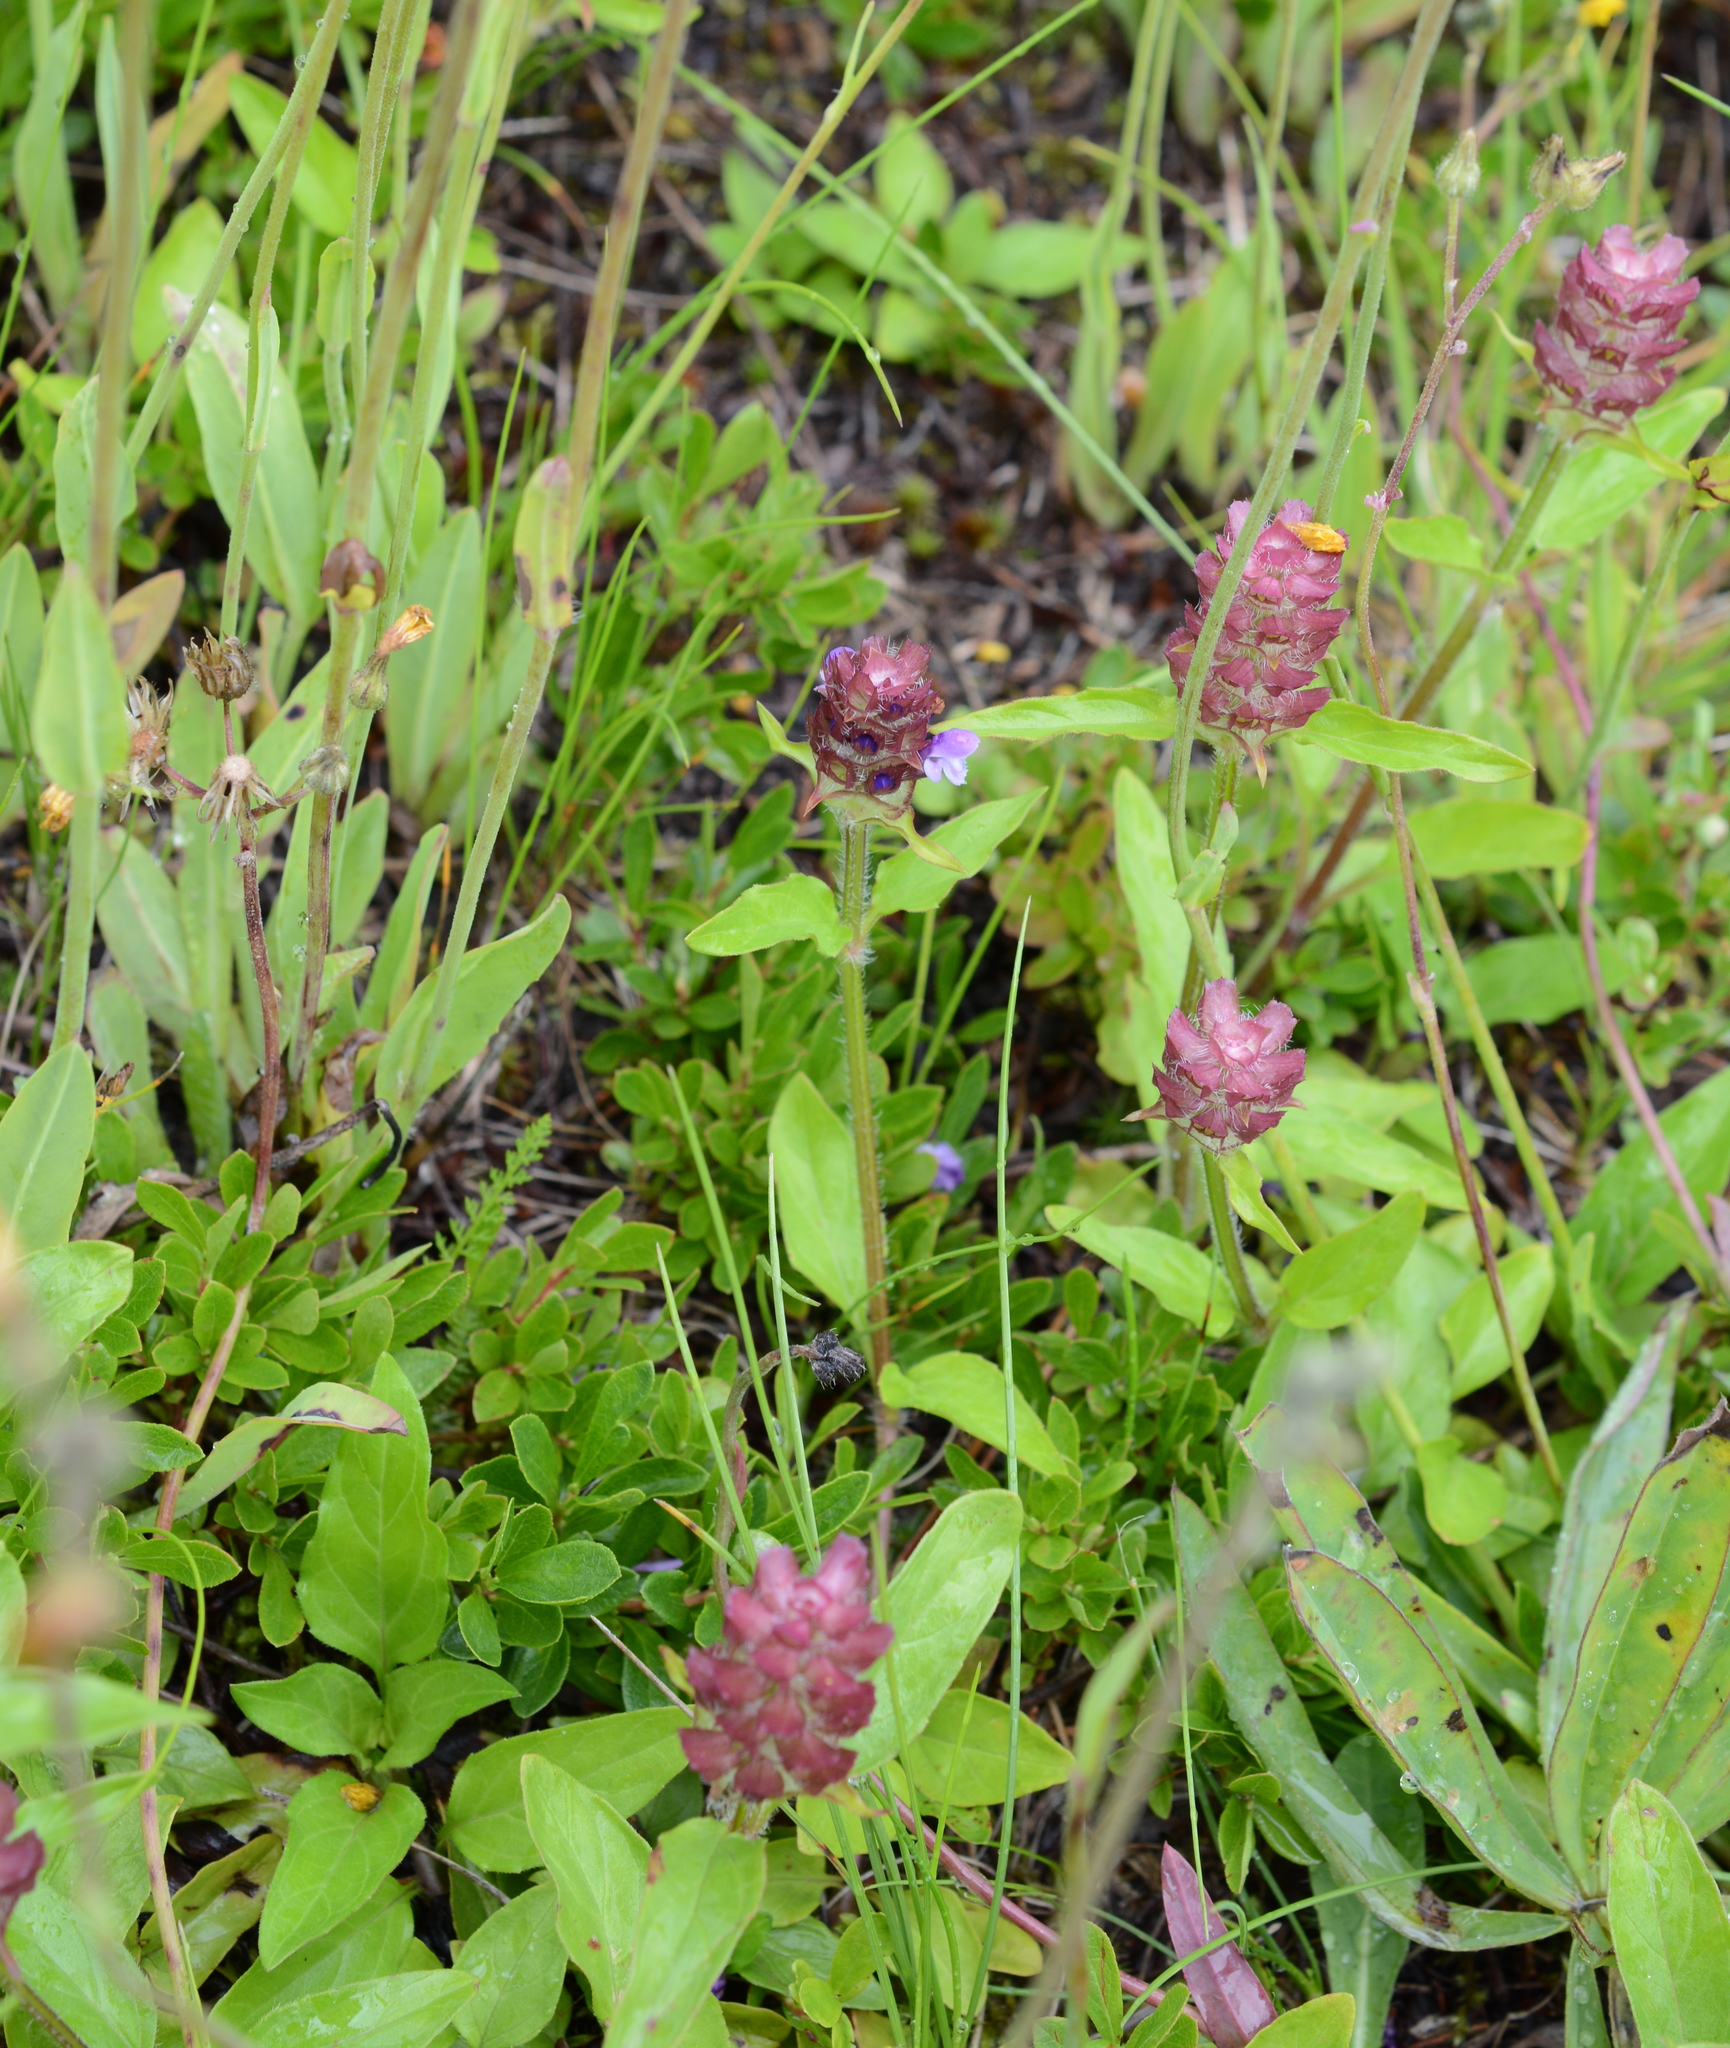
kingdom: Plantae
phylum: Tracheophyta
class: Magnoliopsida
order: Lamiales
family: Lamiaceae
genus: Prunella
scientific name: Prunella vulgaris
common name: Heal-all
